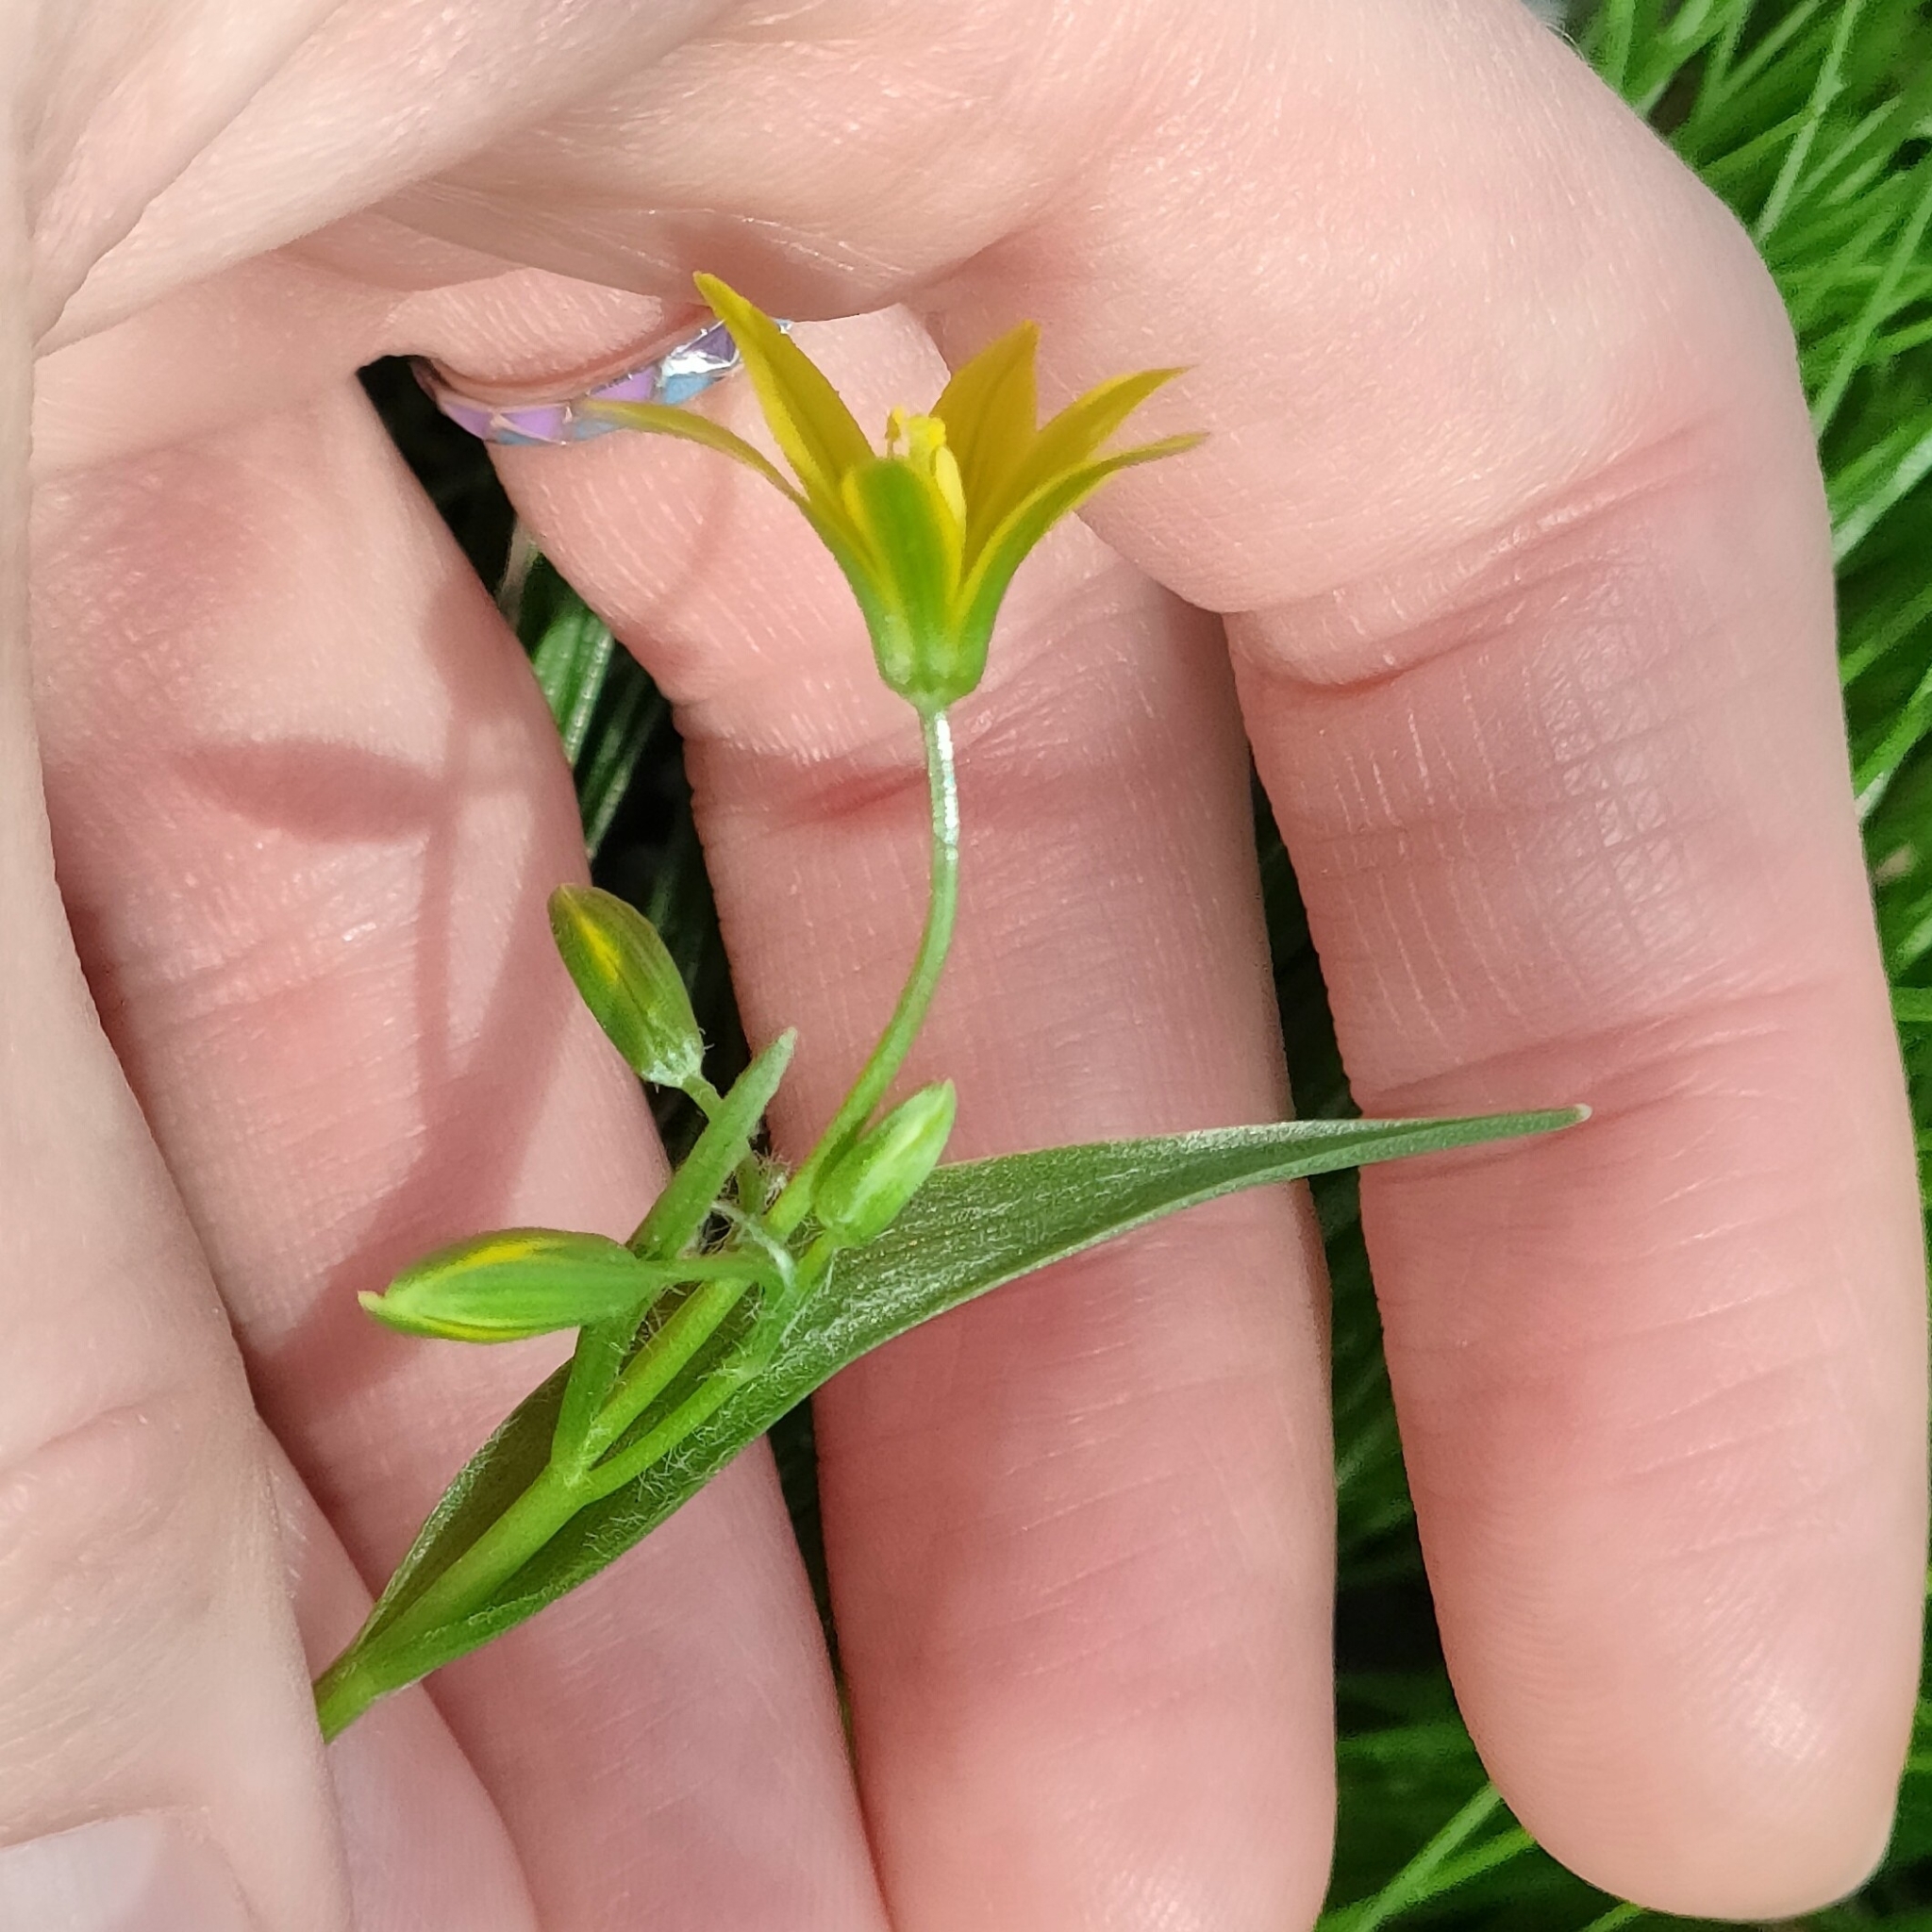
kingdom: Plantae
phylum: Tracheophyta
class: Liliopsida
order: Liliales
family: Liliaceae
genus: Gagea
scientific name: Gagea minima
